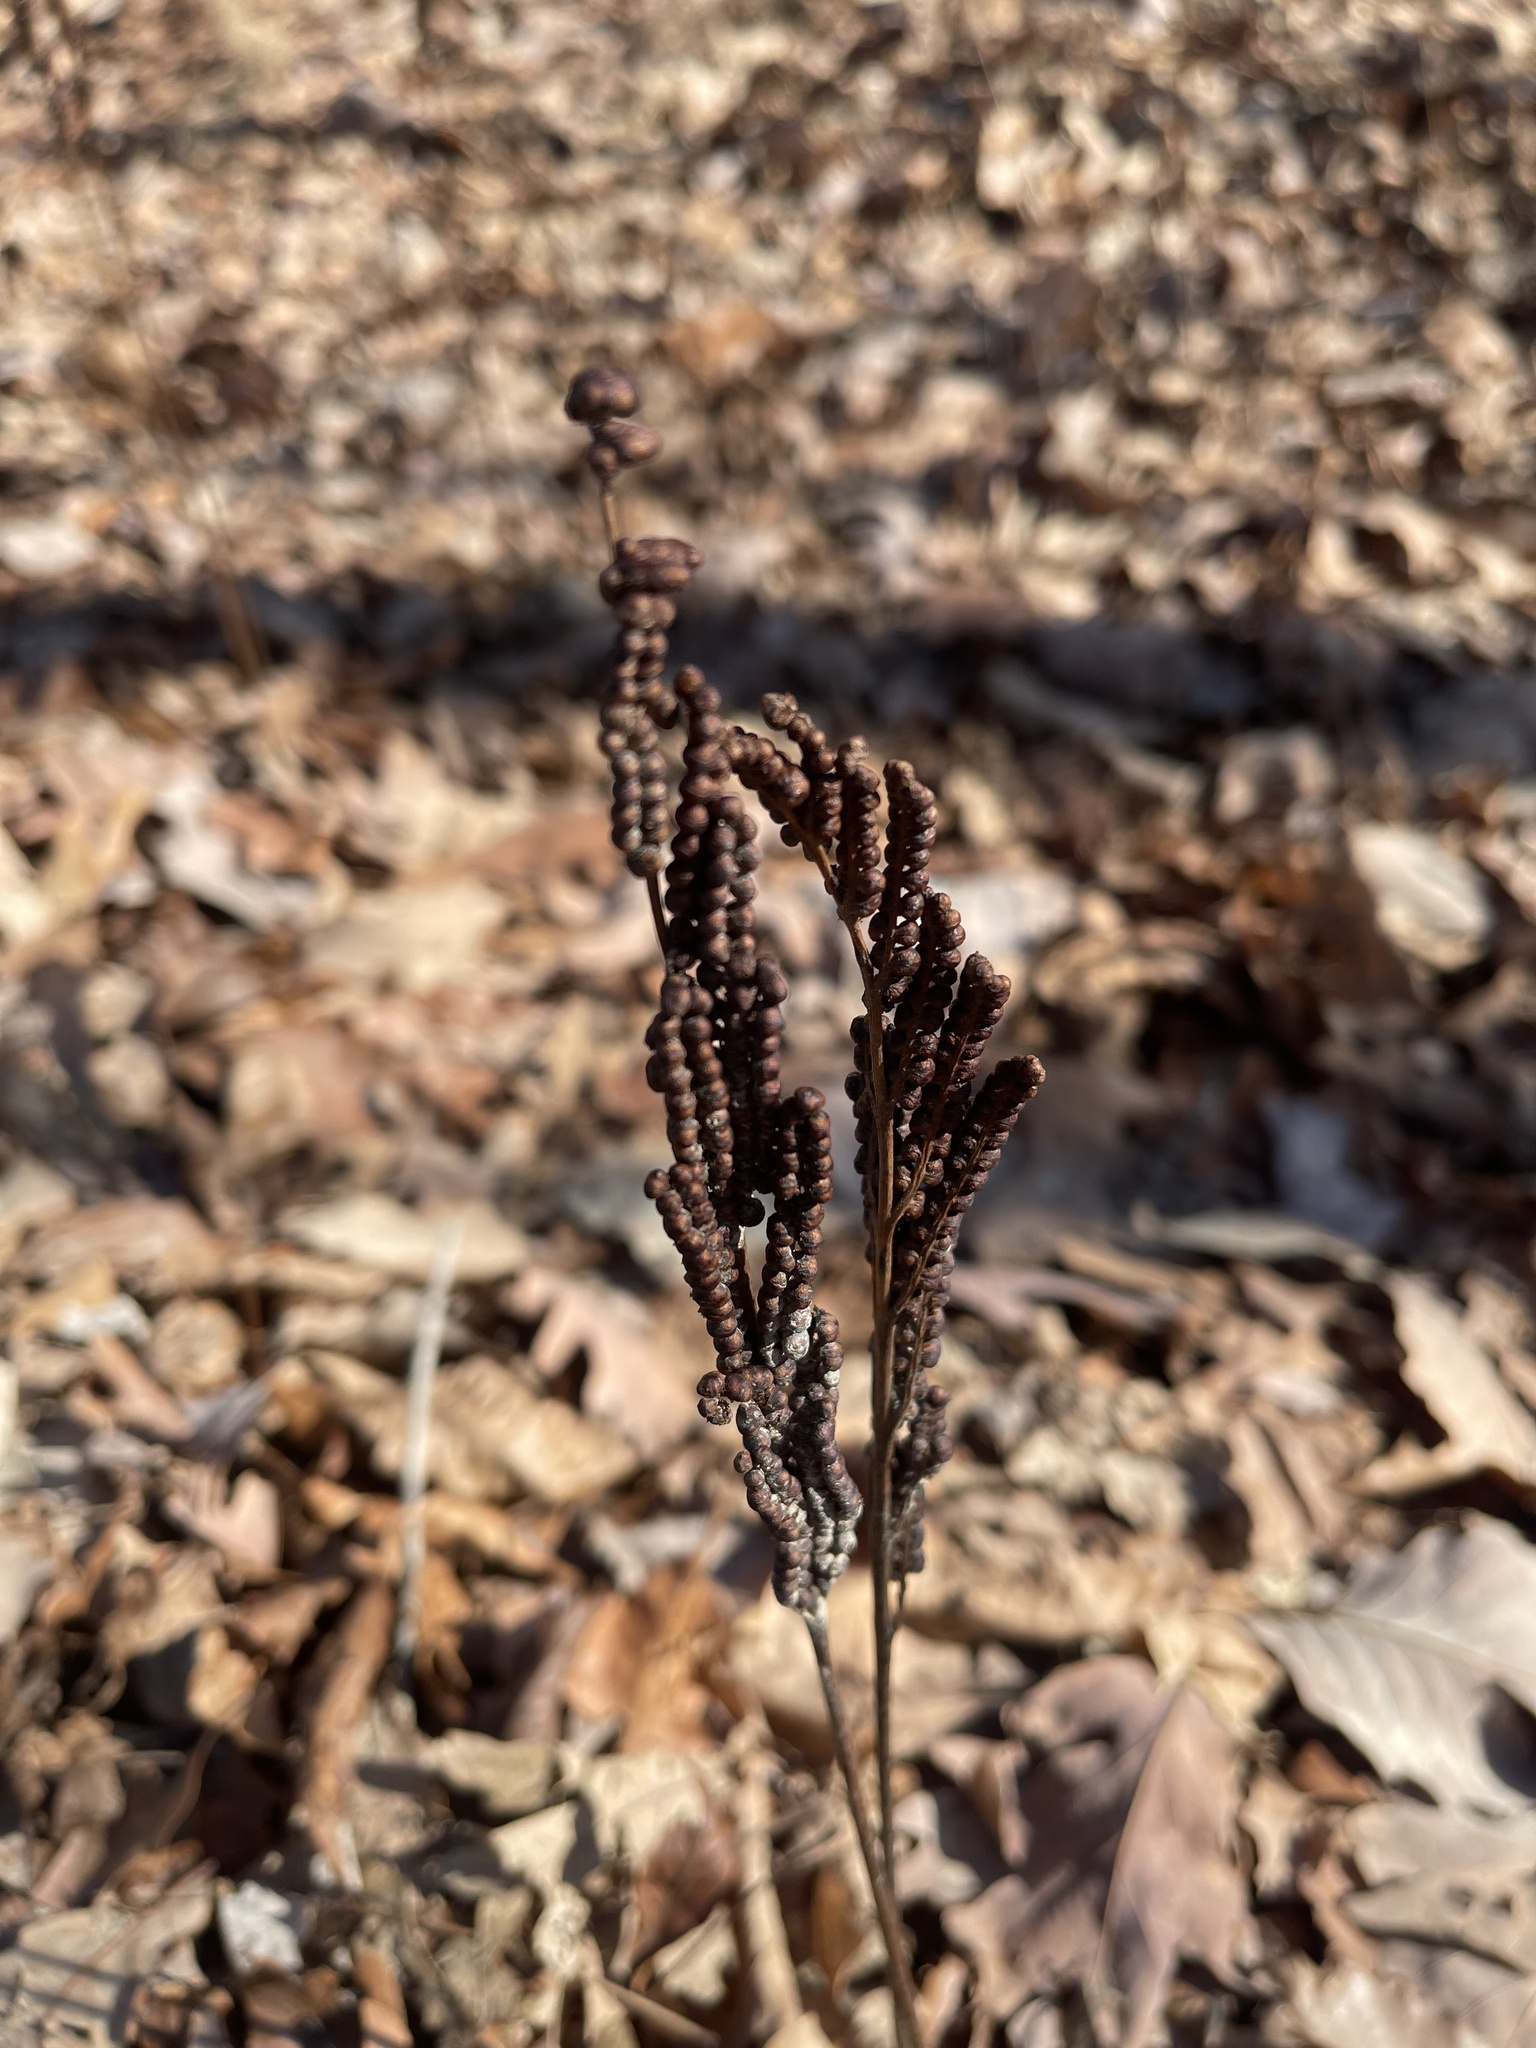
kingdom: Plantae
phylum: Tracheophyta
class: Polypodiopsida
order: Polypodiales
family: Onocleaceae
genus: Onoclea
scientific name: Onoclea sensibilis
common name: Sensitive fern
